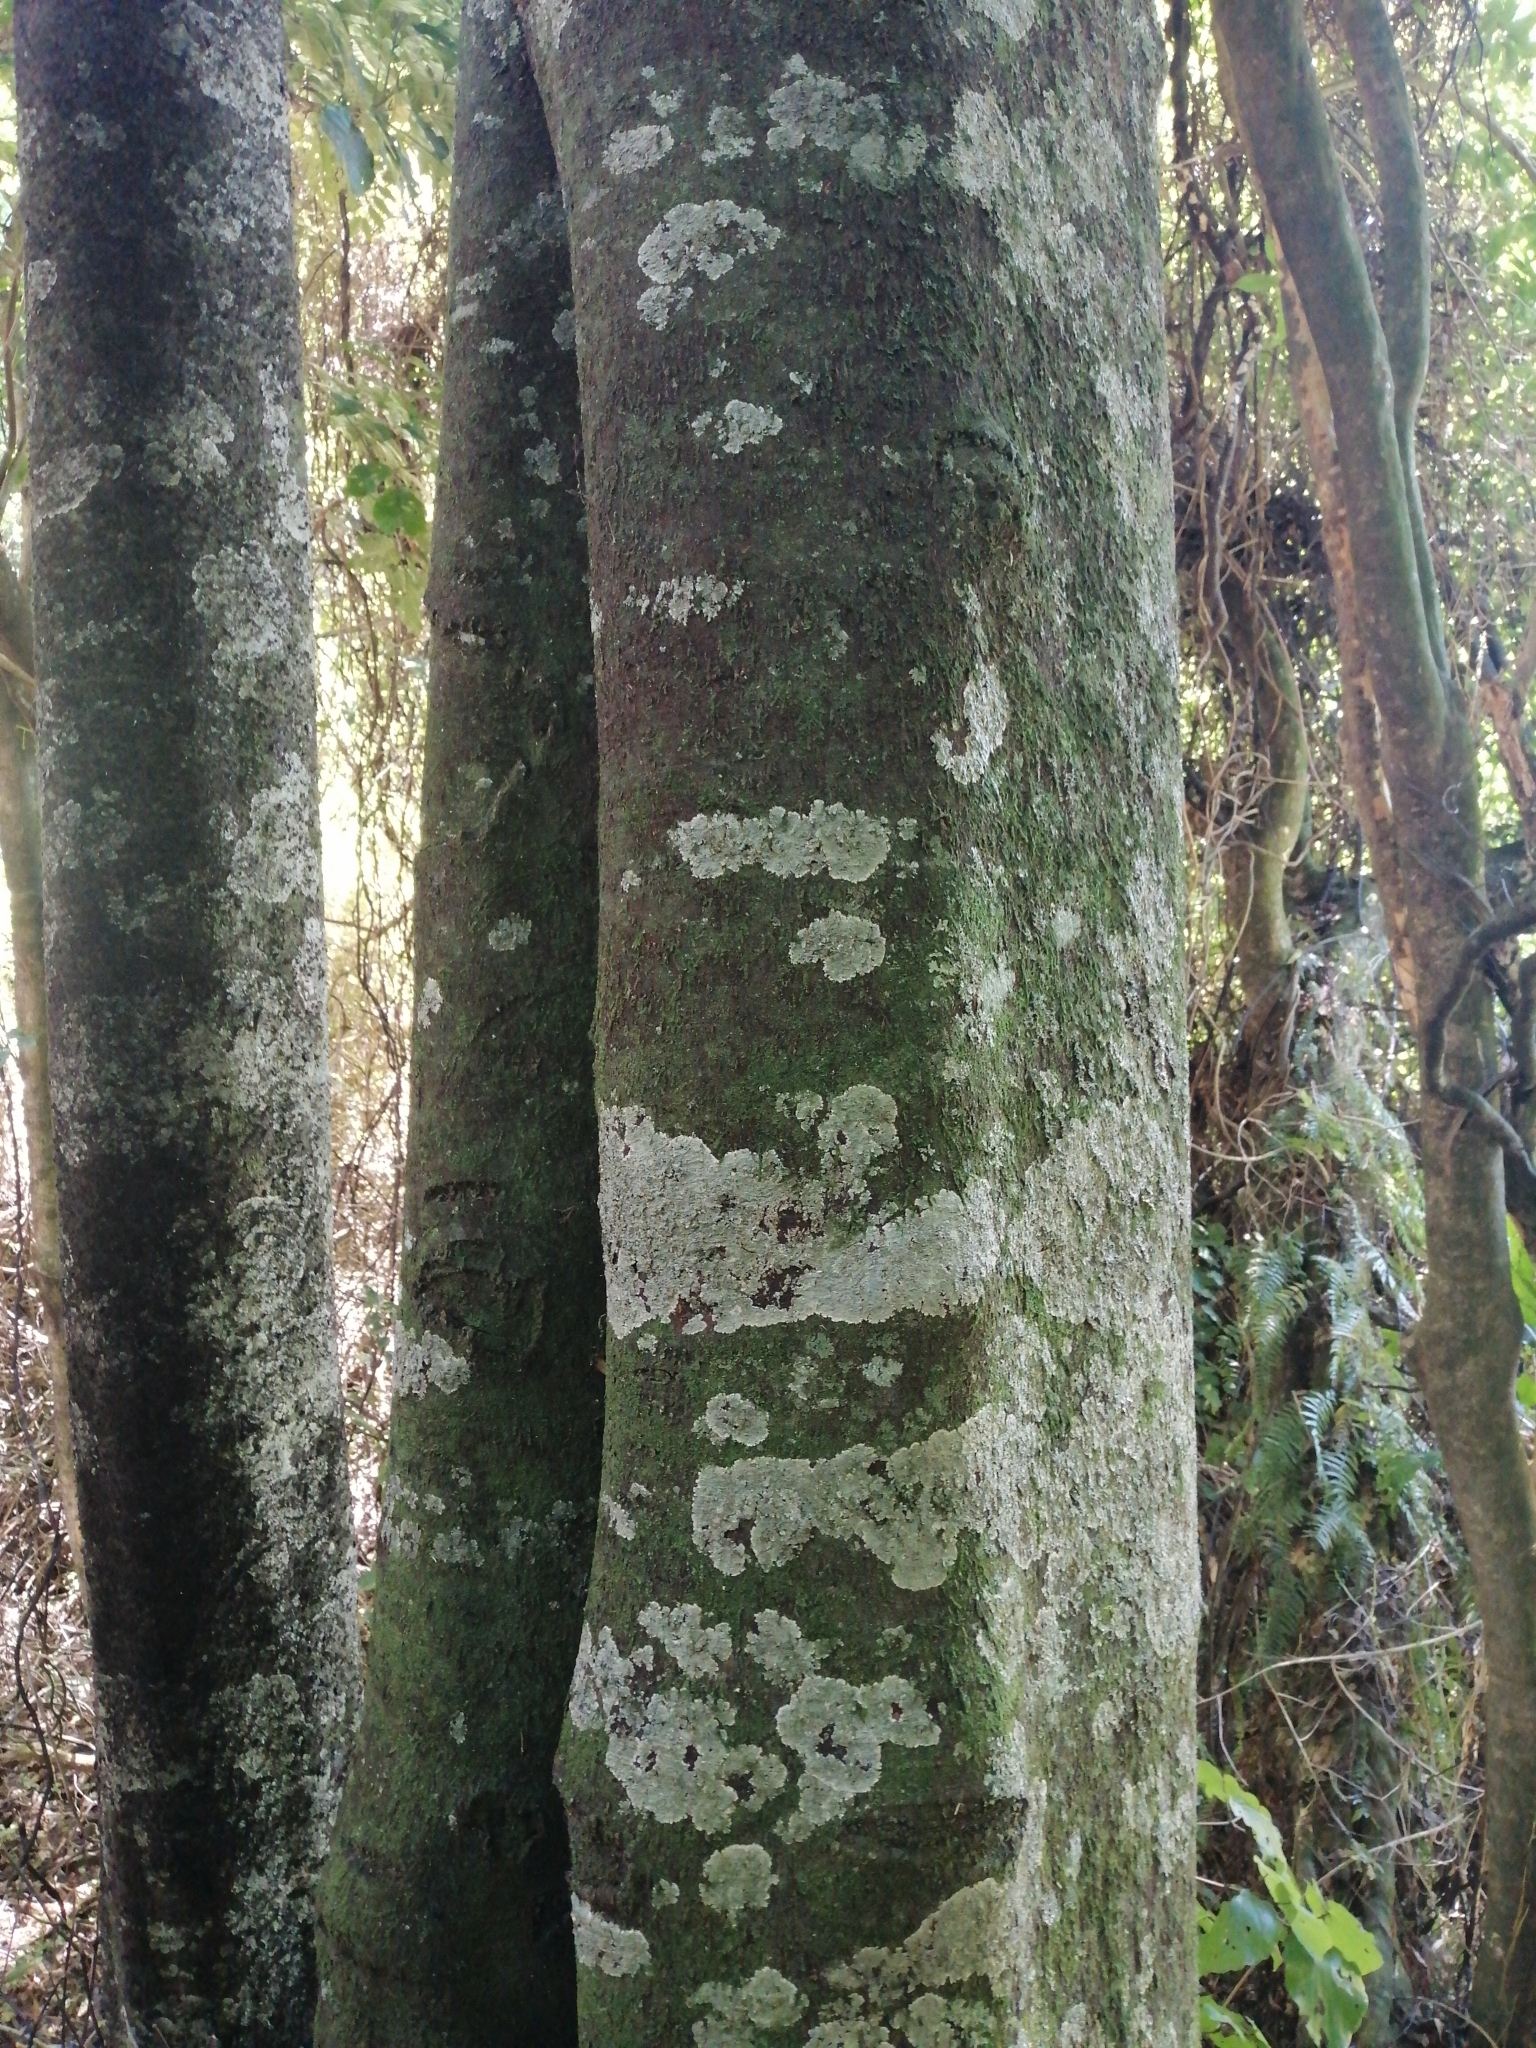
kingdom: Plantae
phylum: Tracheophyta
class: Magnoliopsida
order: Laurales
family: Lauraceae
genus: Beilschmiedia
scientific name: Beilschmiedia tawa
